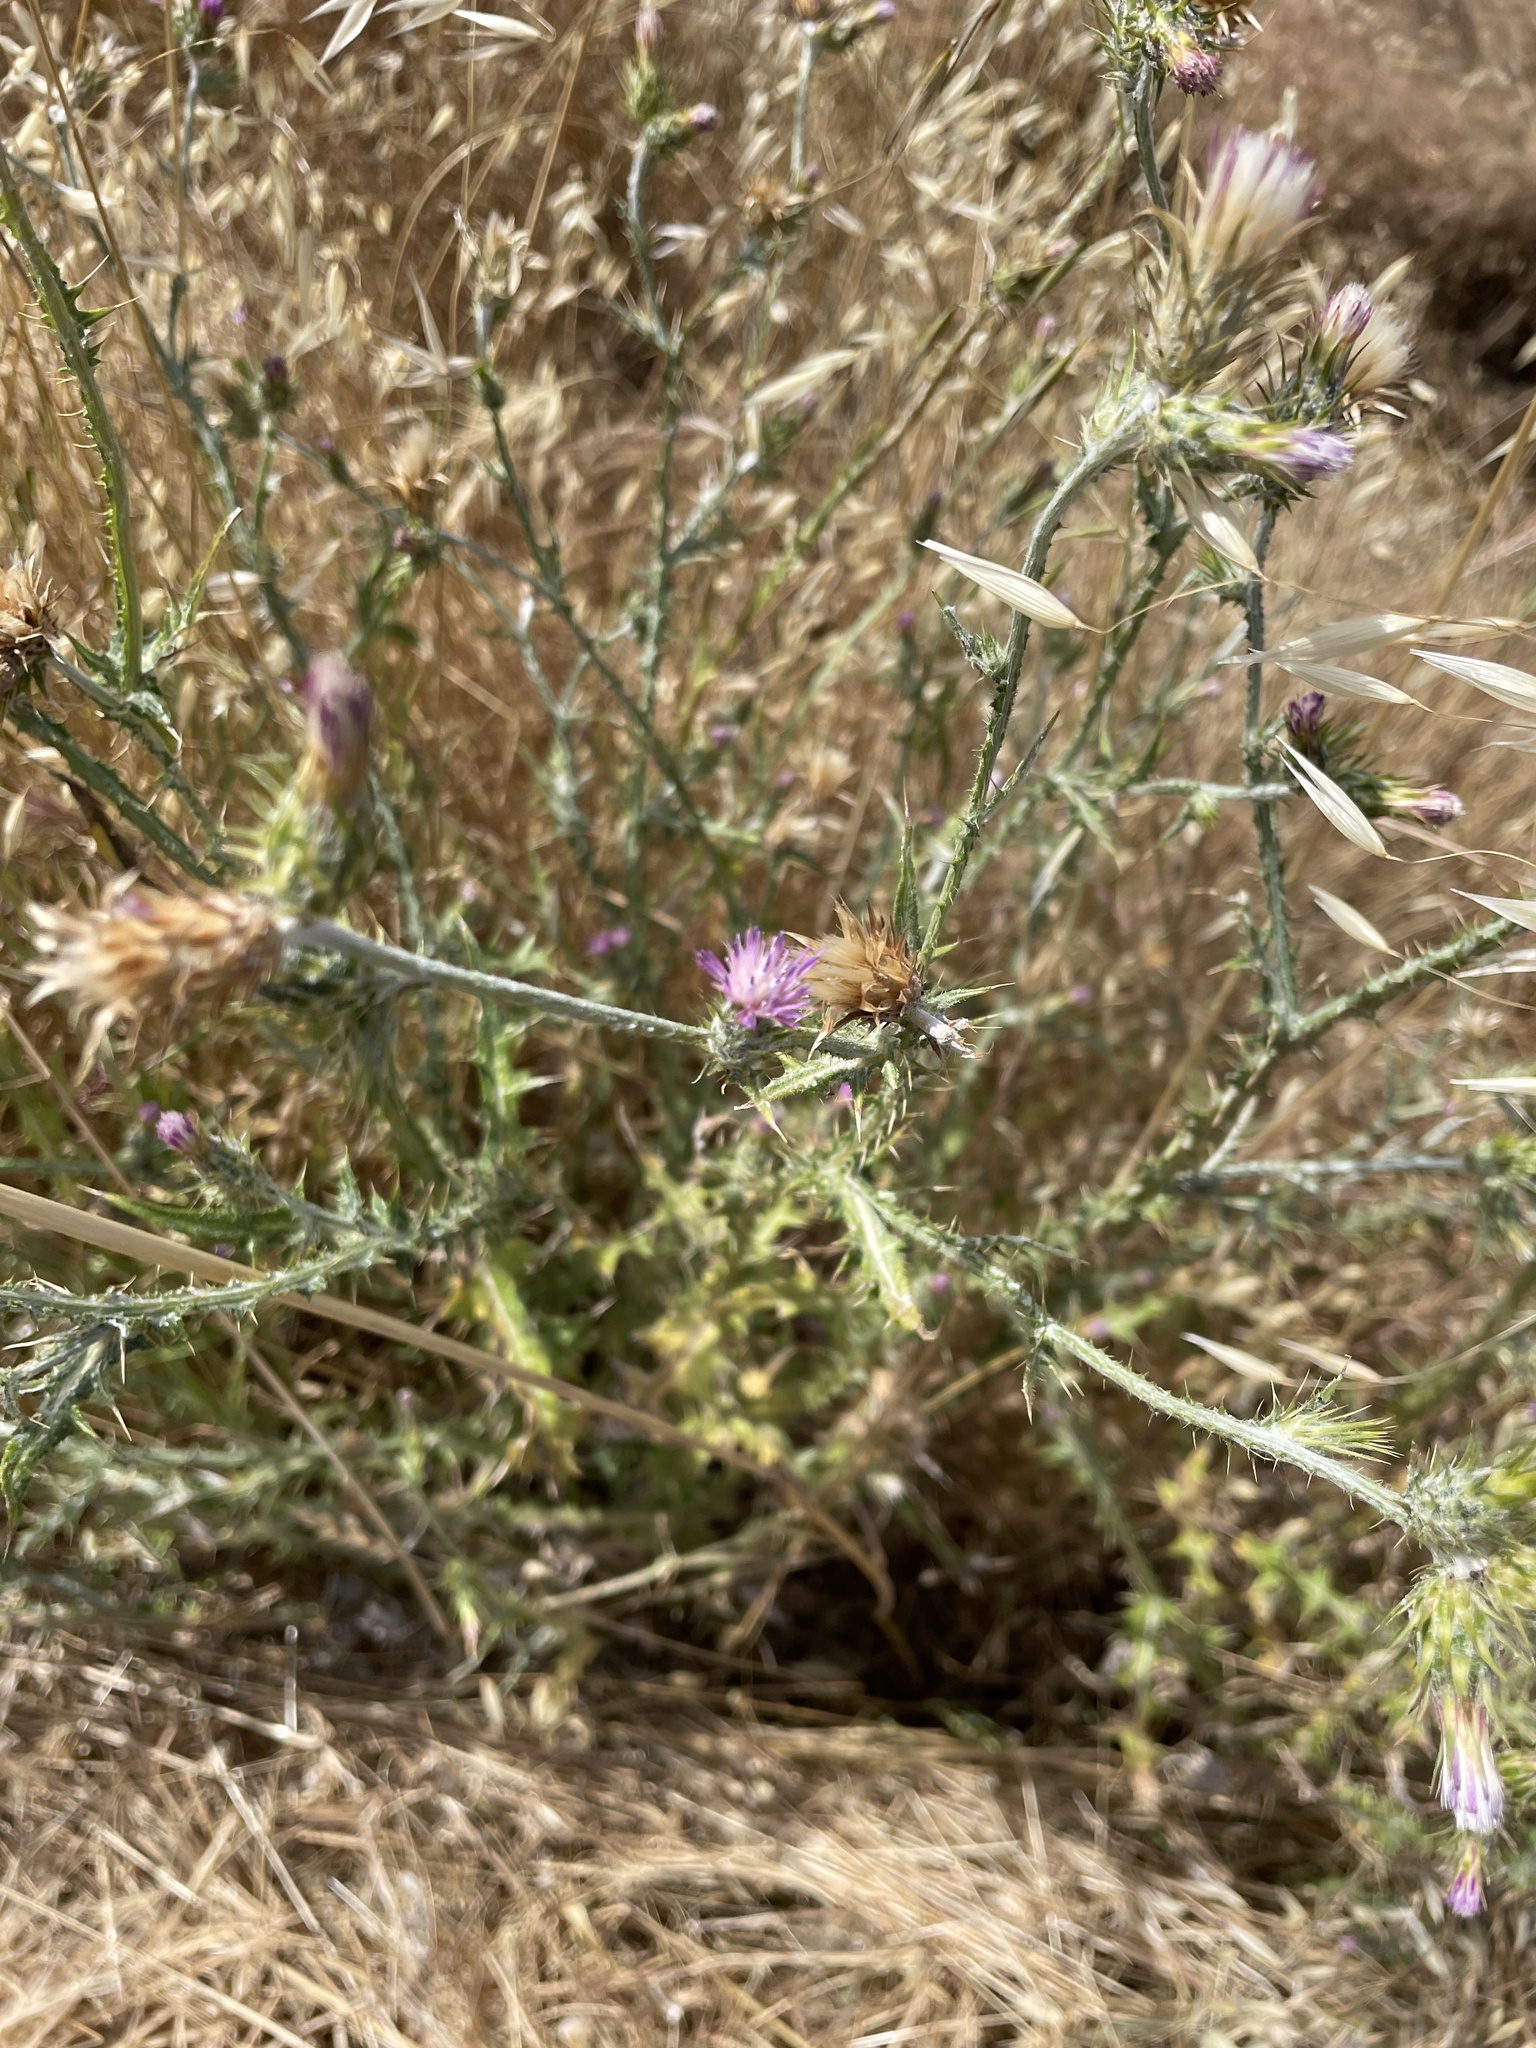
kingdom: Plantae
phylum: Tracheophyta
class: Magnoliopsida
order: Asterales
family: Asteraceae
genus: Carduus
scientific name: Carduus pycnocephalus
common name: Plymouth thistle
